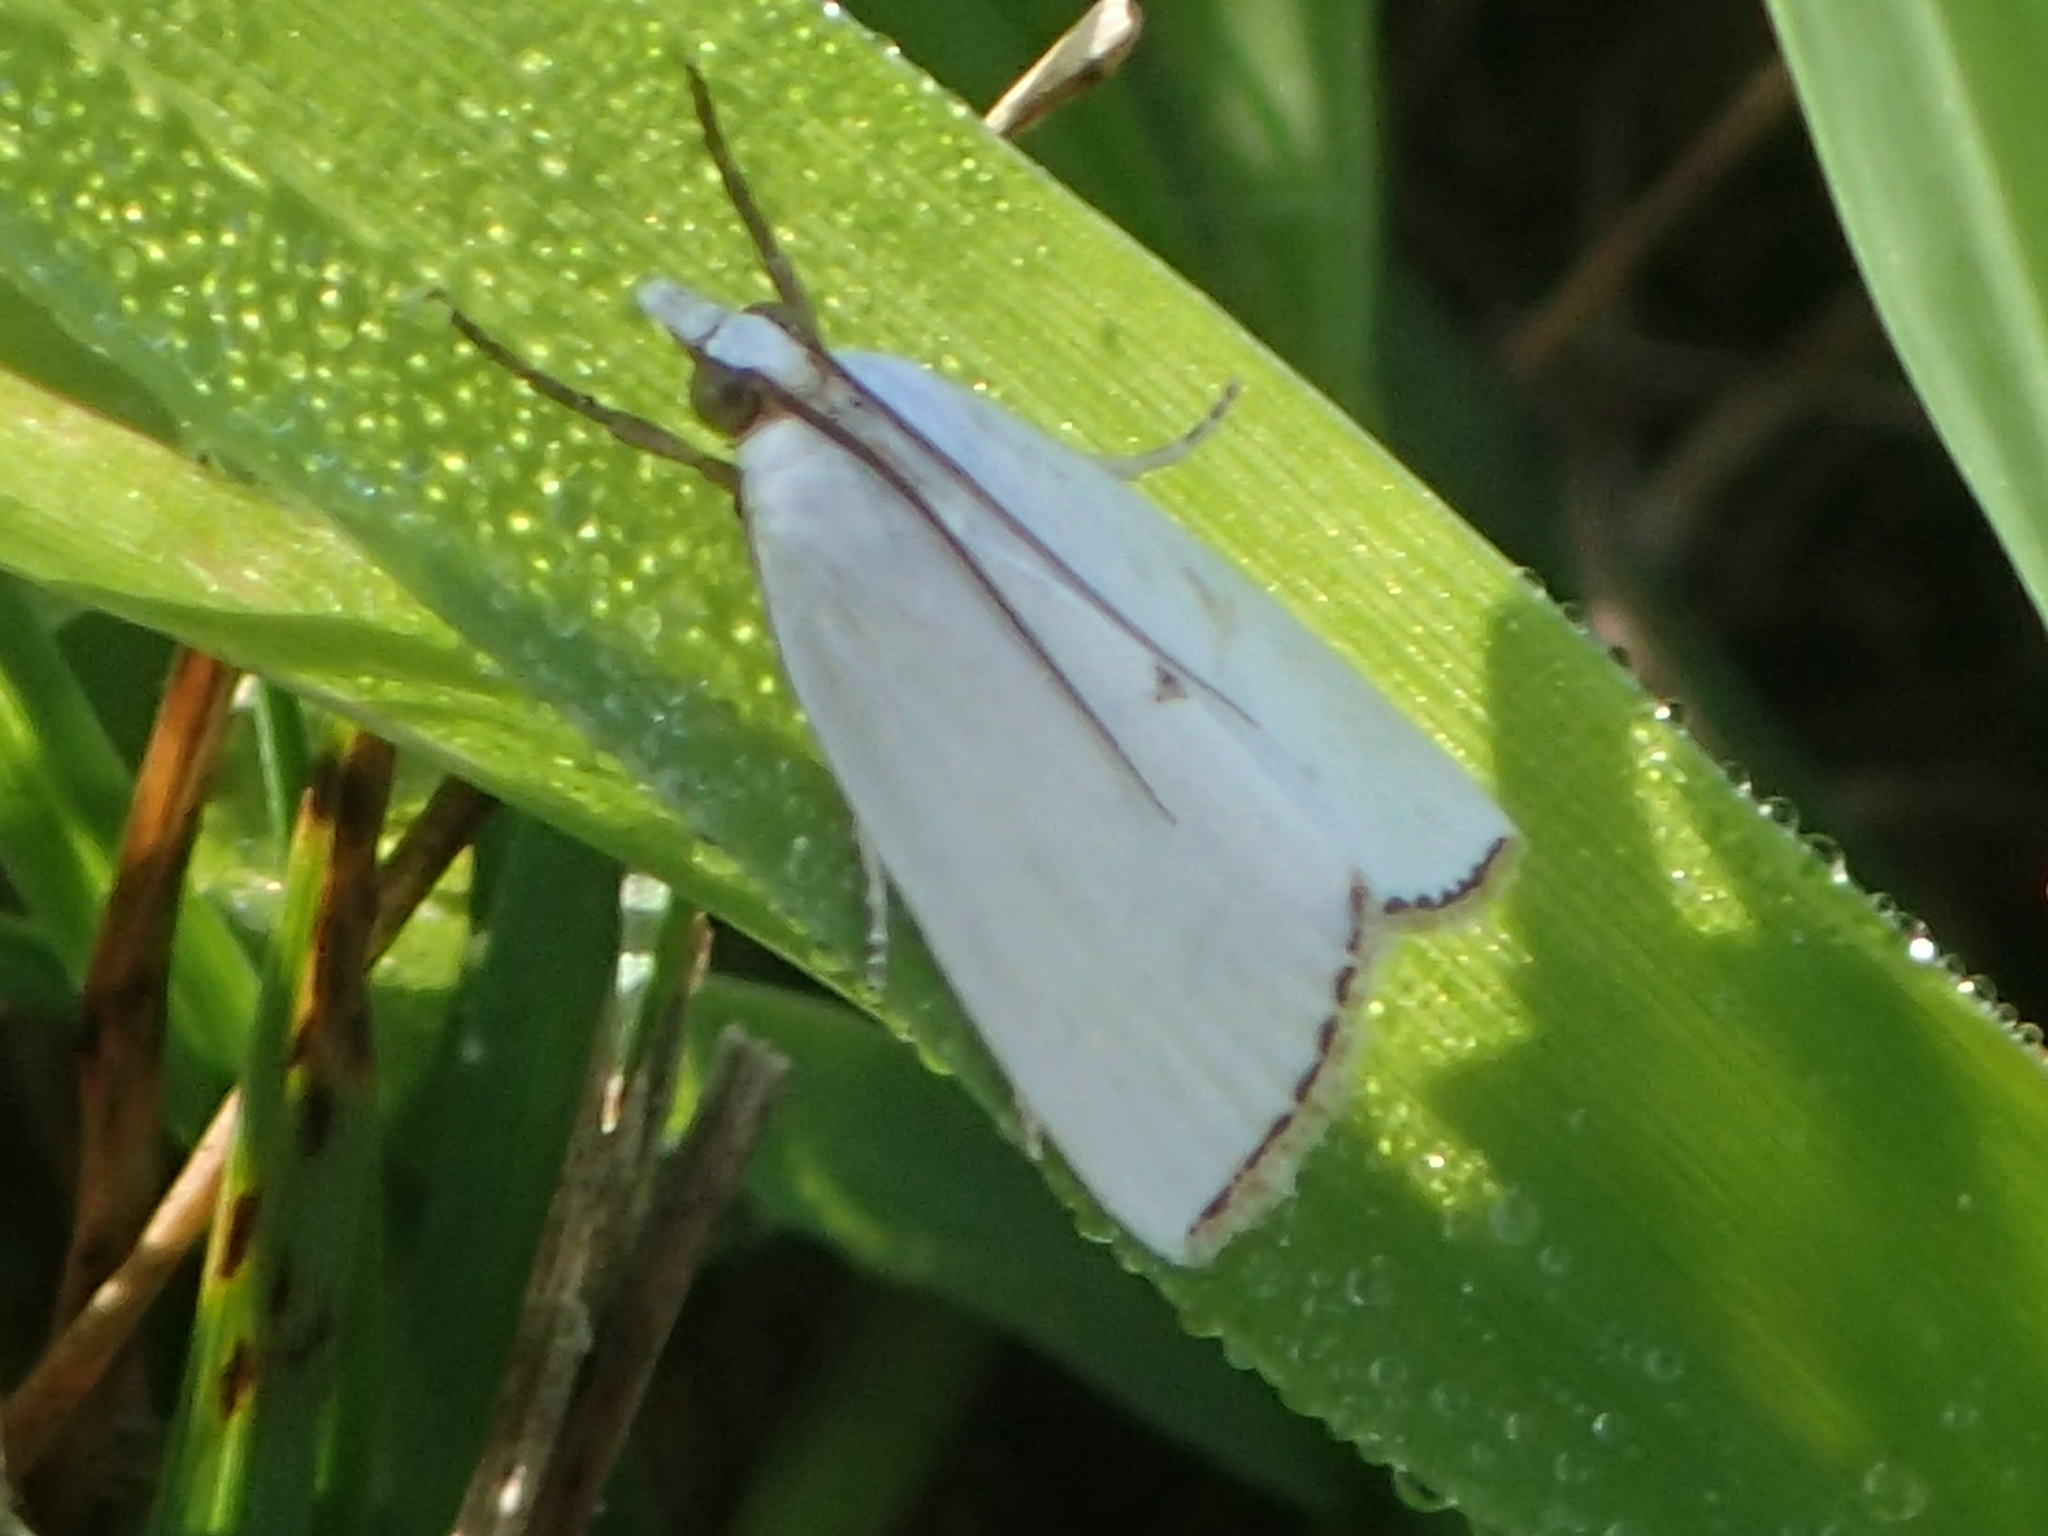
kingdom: Animalia
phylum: Arthropoda
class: Insecta
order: Lepidoptera
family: Crambidae
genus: Argyria
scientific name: Argyria nivalis
